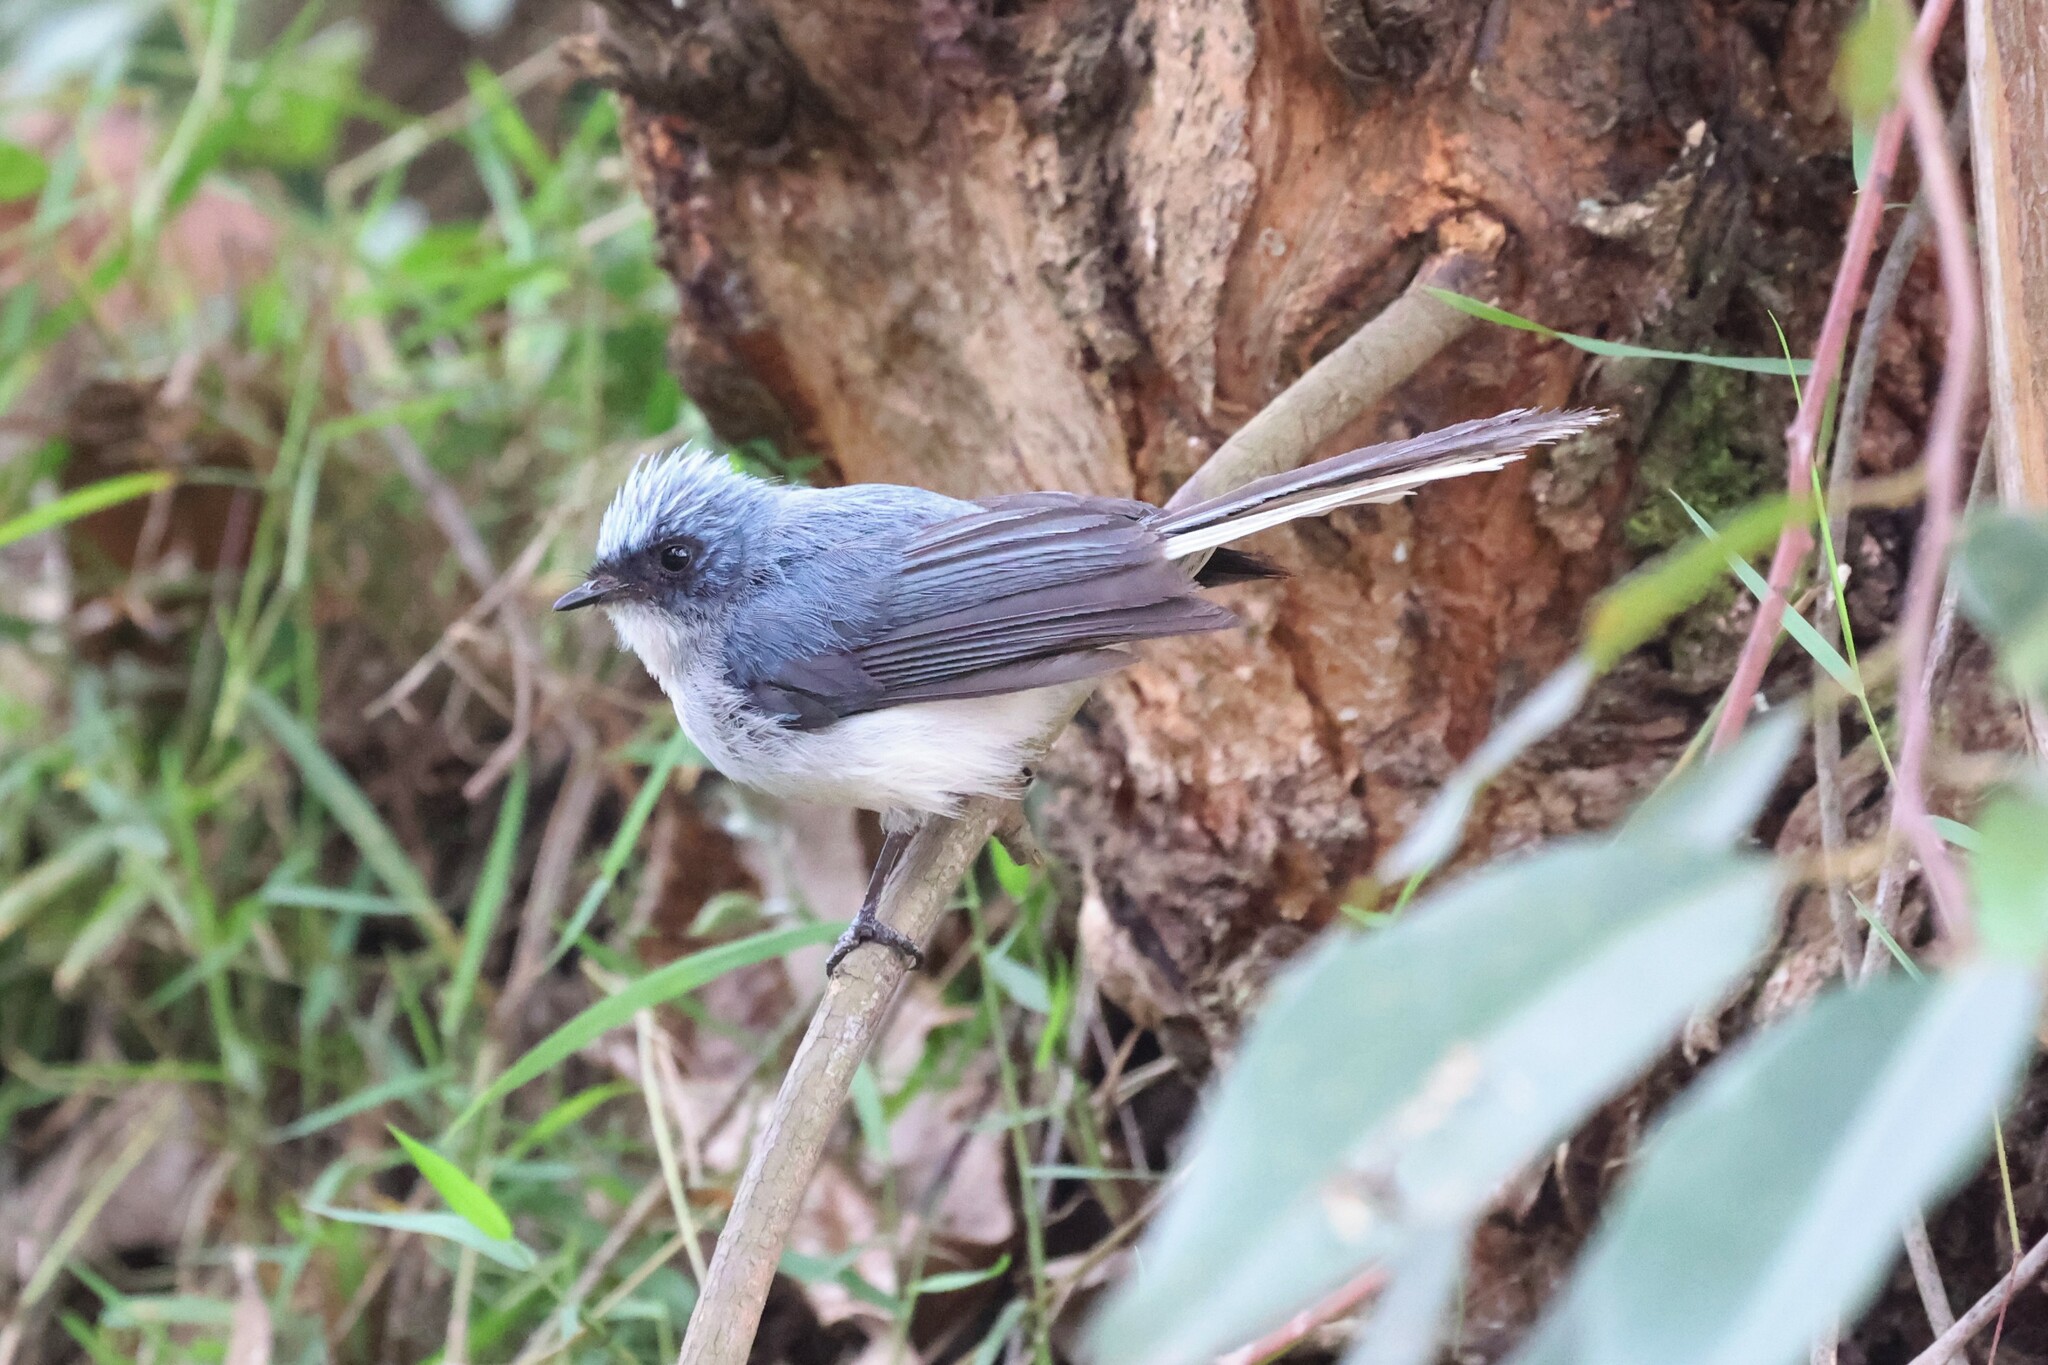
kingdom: Animalia
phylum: Chordata
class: Aves
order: Passeriformes
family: Stenostiridae
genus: Elminia
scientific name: Elminia albicauda
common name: White-tailed blue flycatcher
